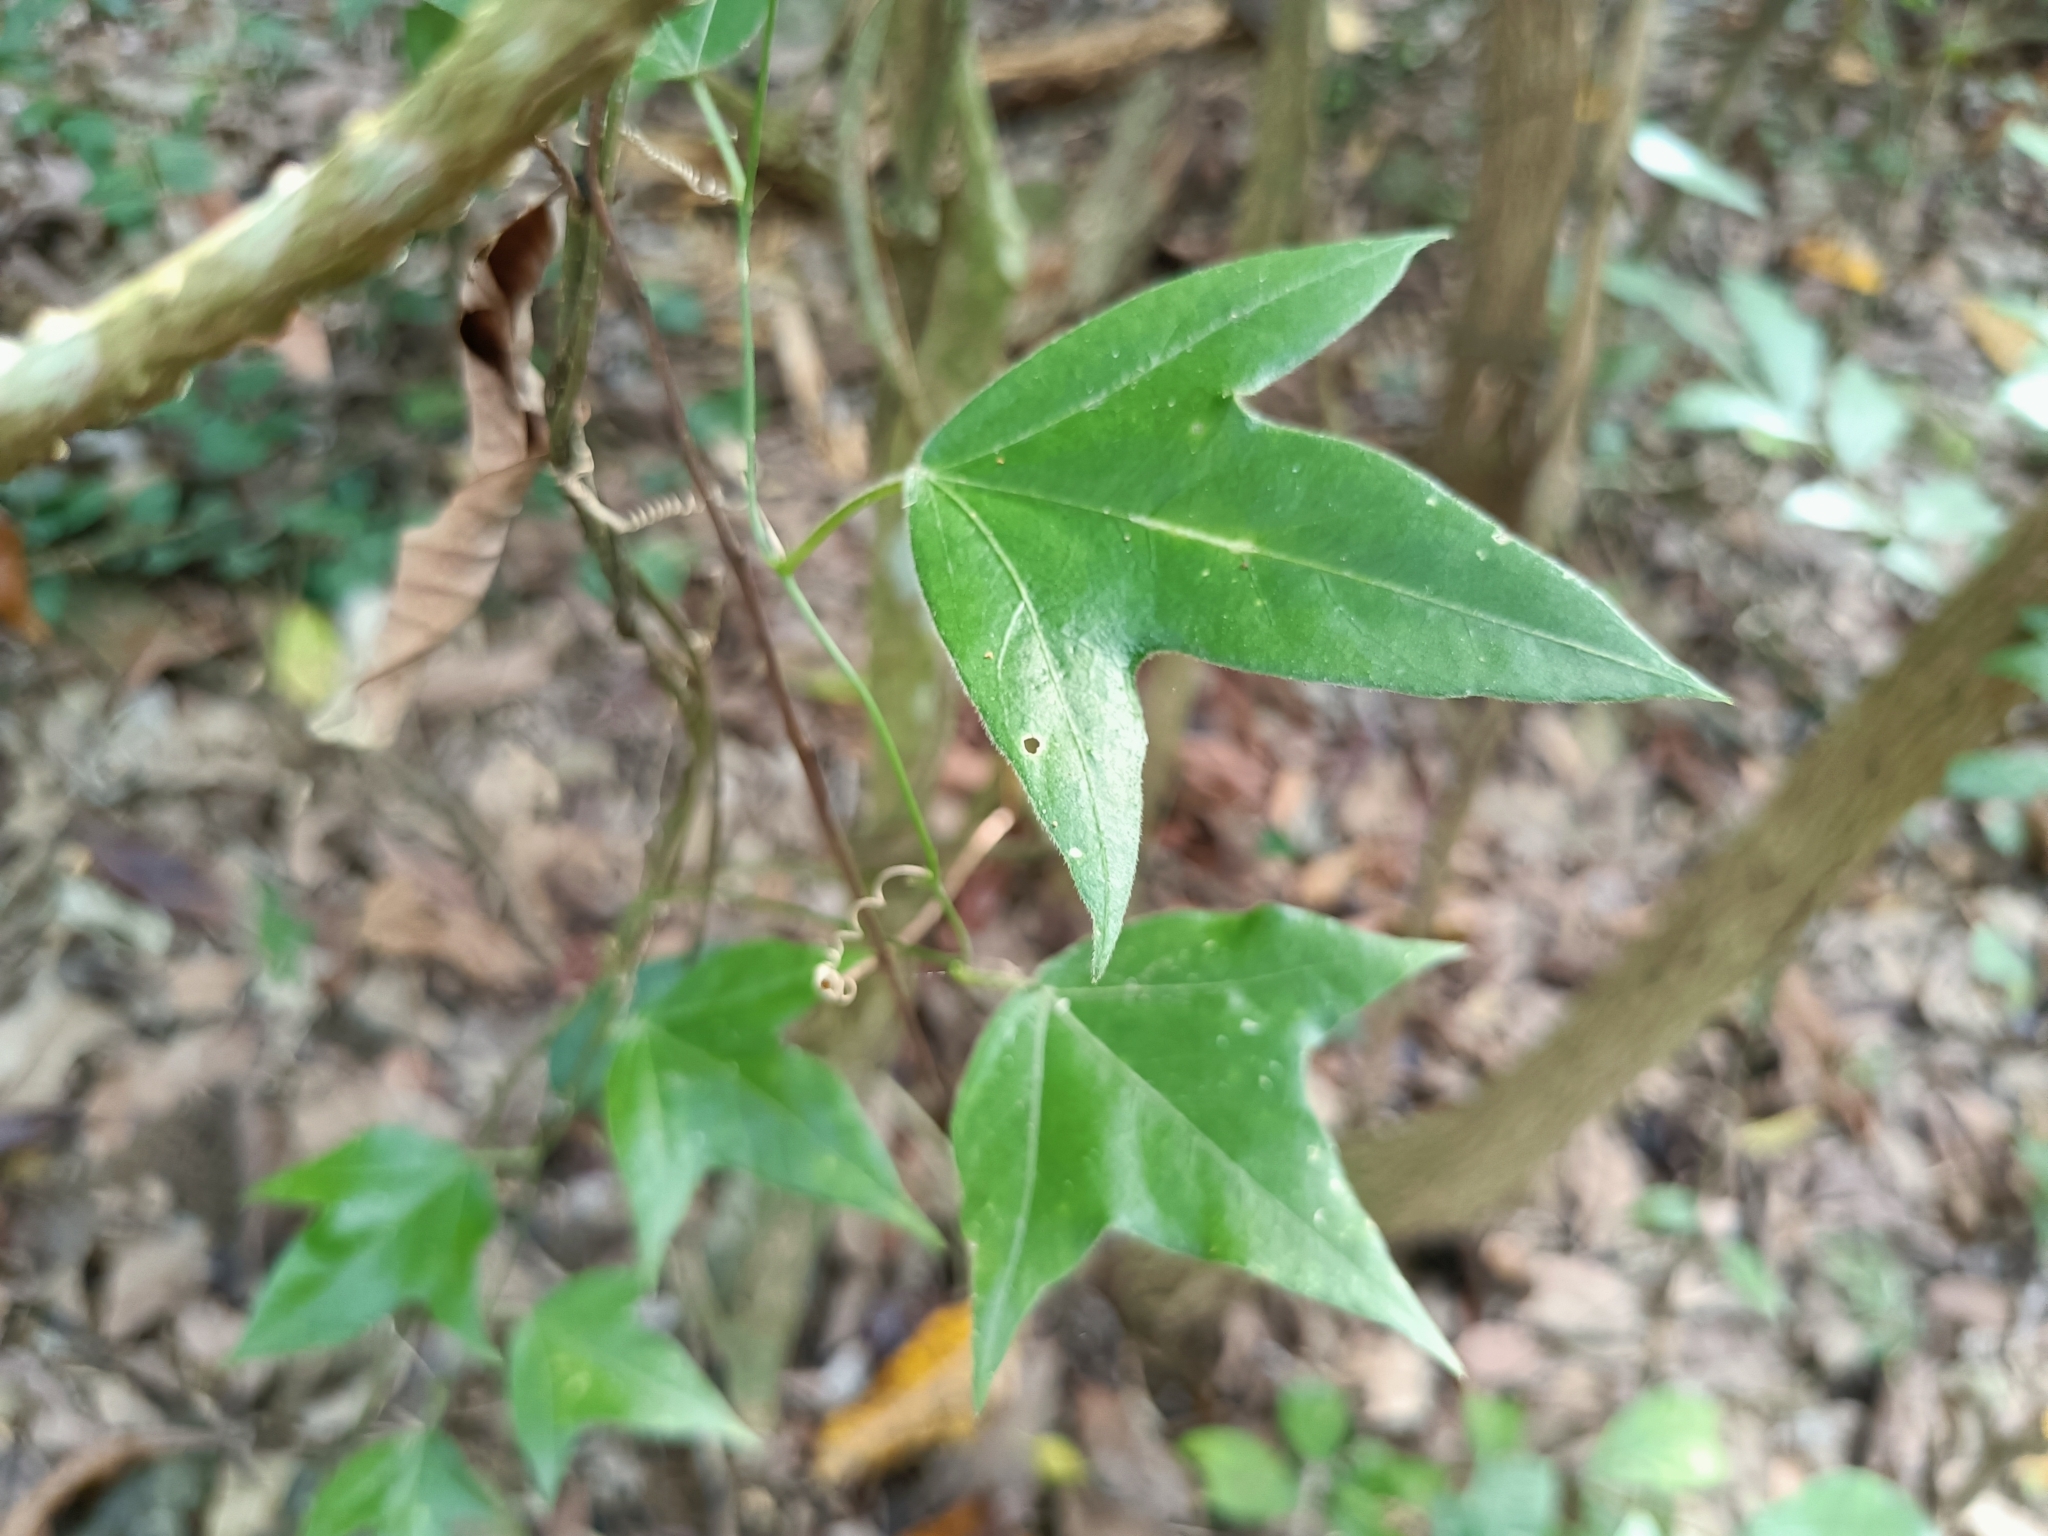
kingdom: Plantae
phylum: Tracheophyta
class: Magnoliopsida
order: Malpighiales
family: Passifloraceae
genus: Passiflora
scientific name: Passiflora suberosa
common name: Wild passionfruit
